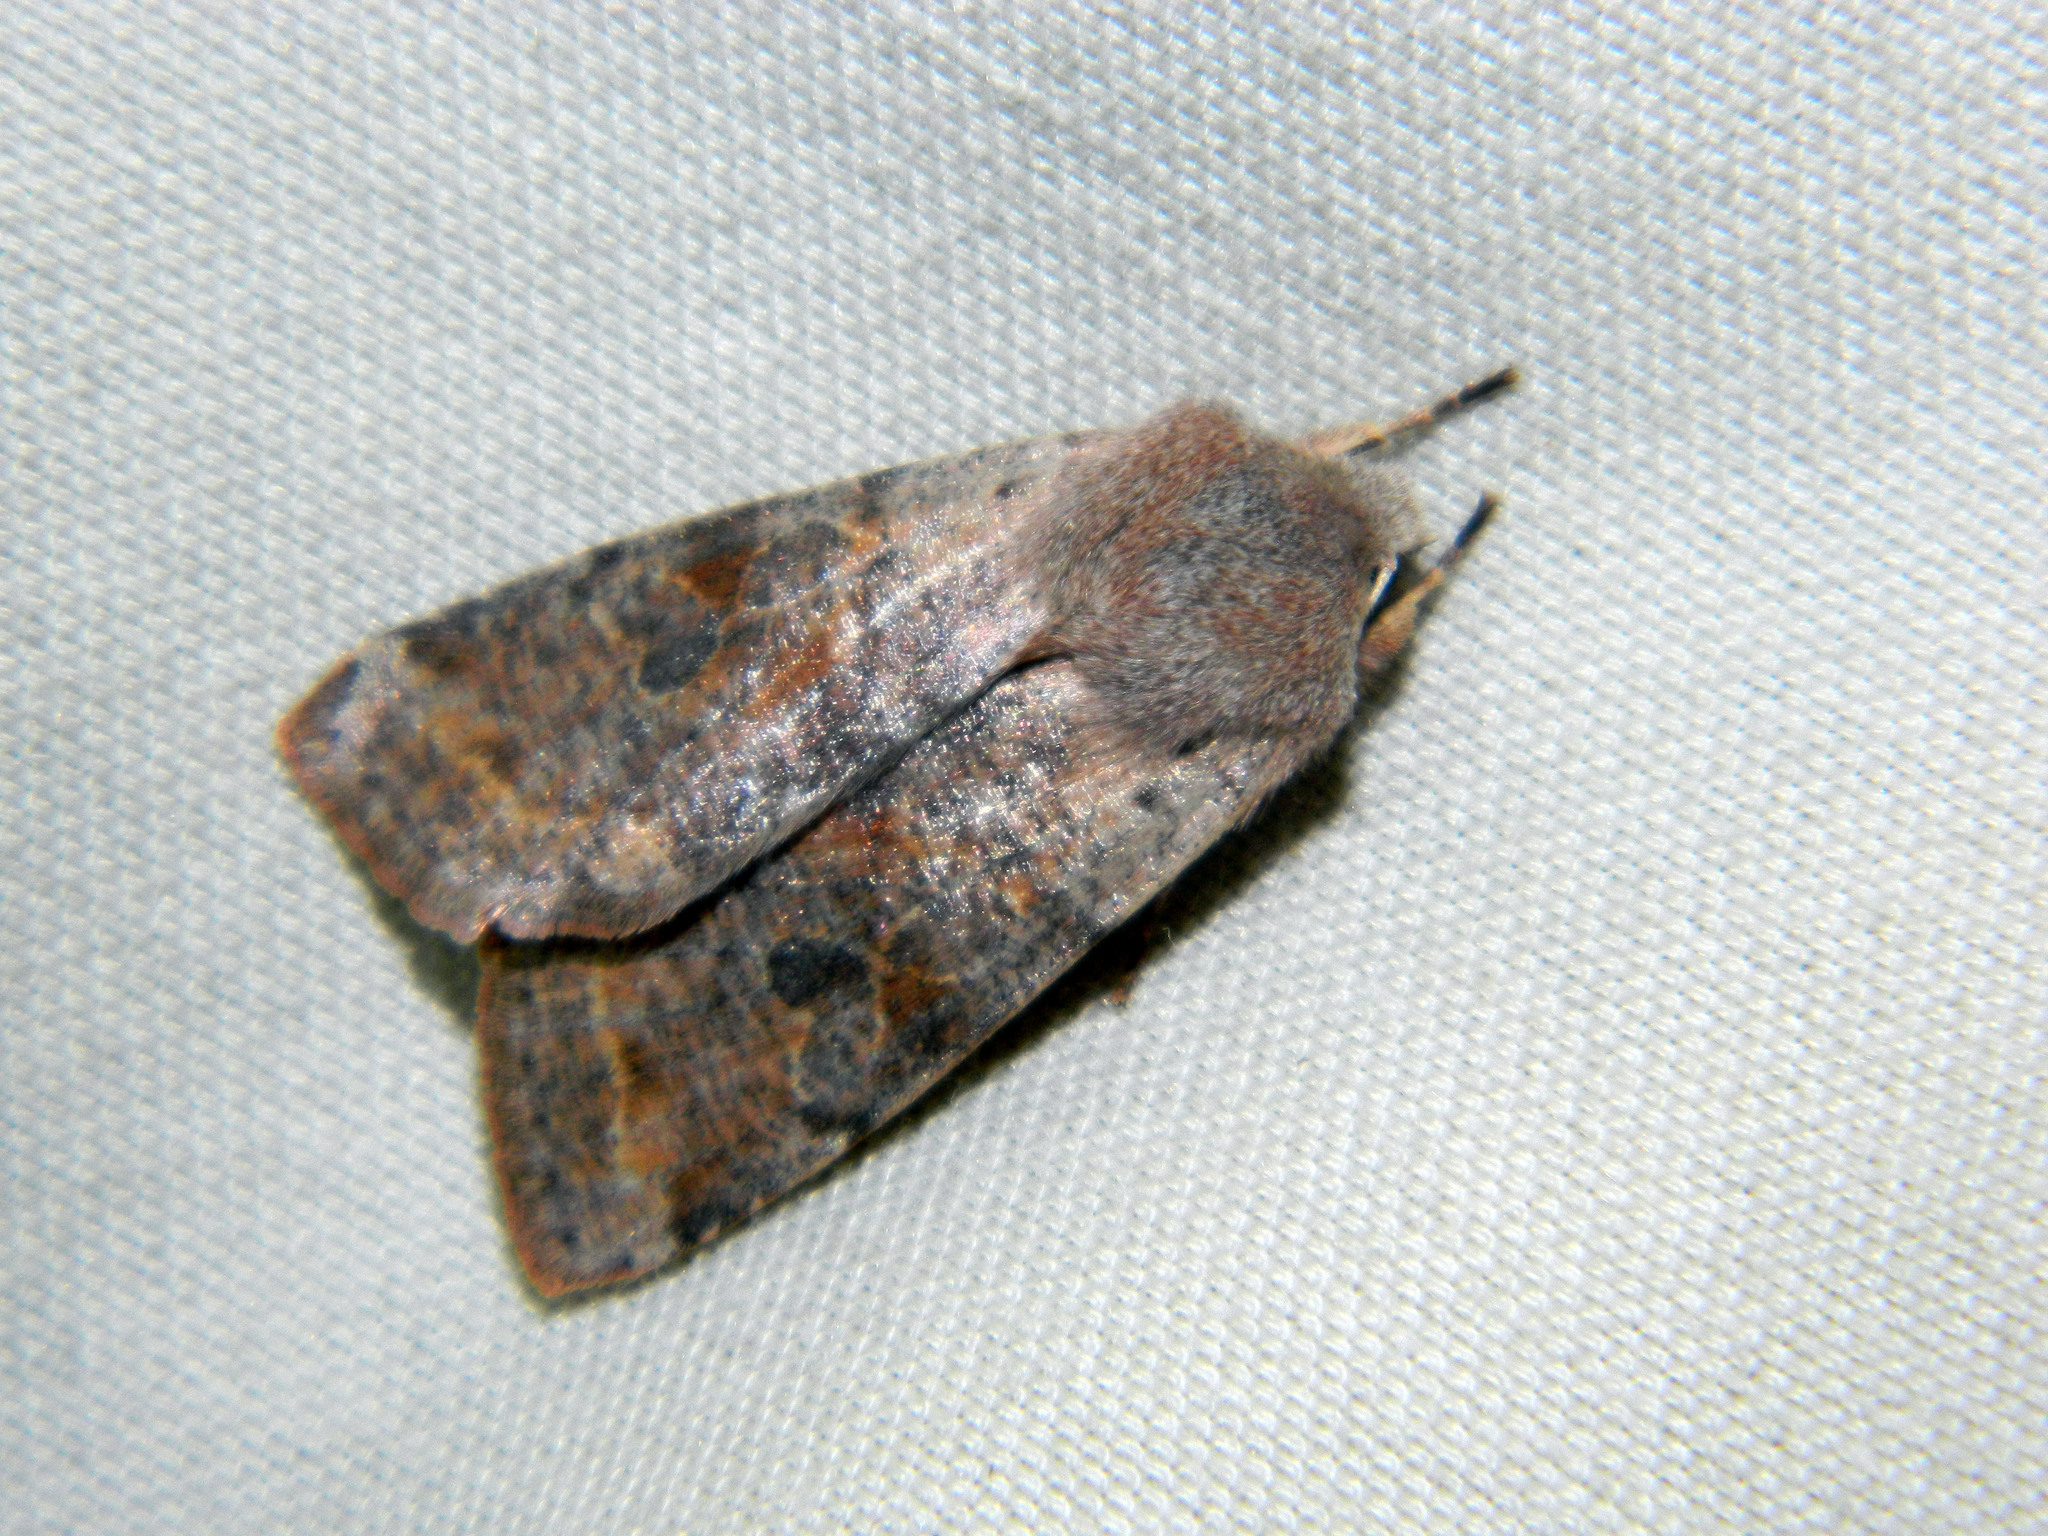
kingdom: Animalia
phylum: Arthropoda
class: Insecta
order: Lepidoptera
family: Noctuidae
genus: Orthosia
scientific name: Orthosia hibisci
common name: Green fruitworm
